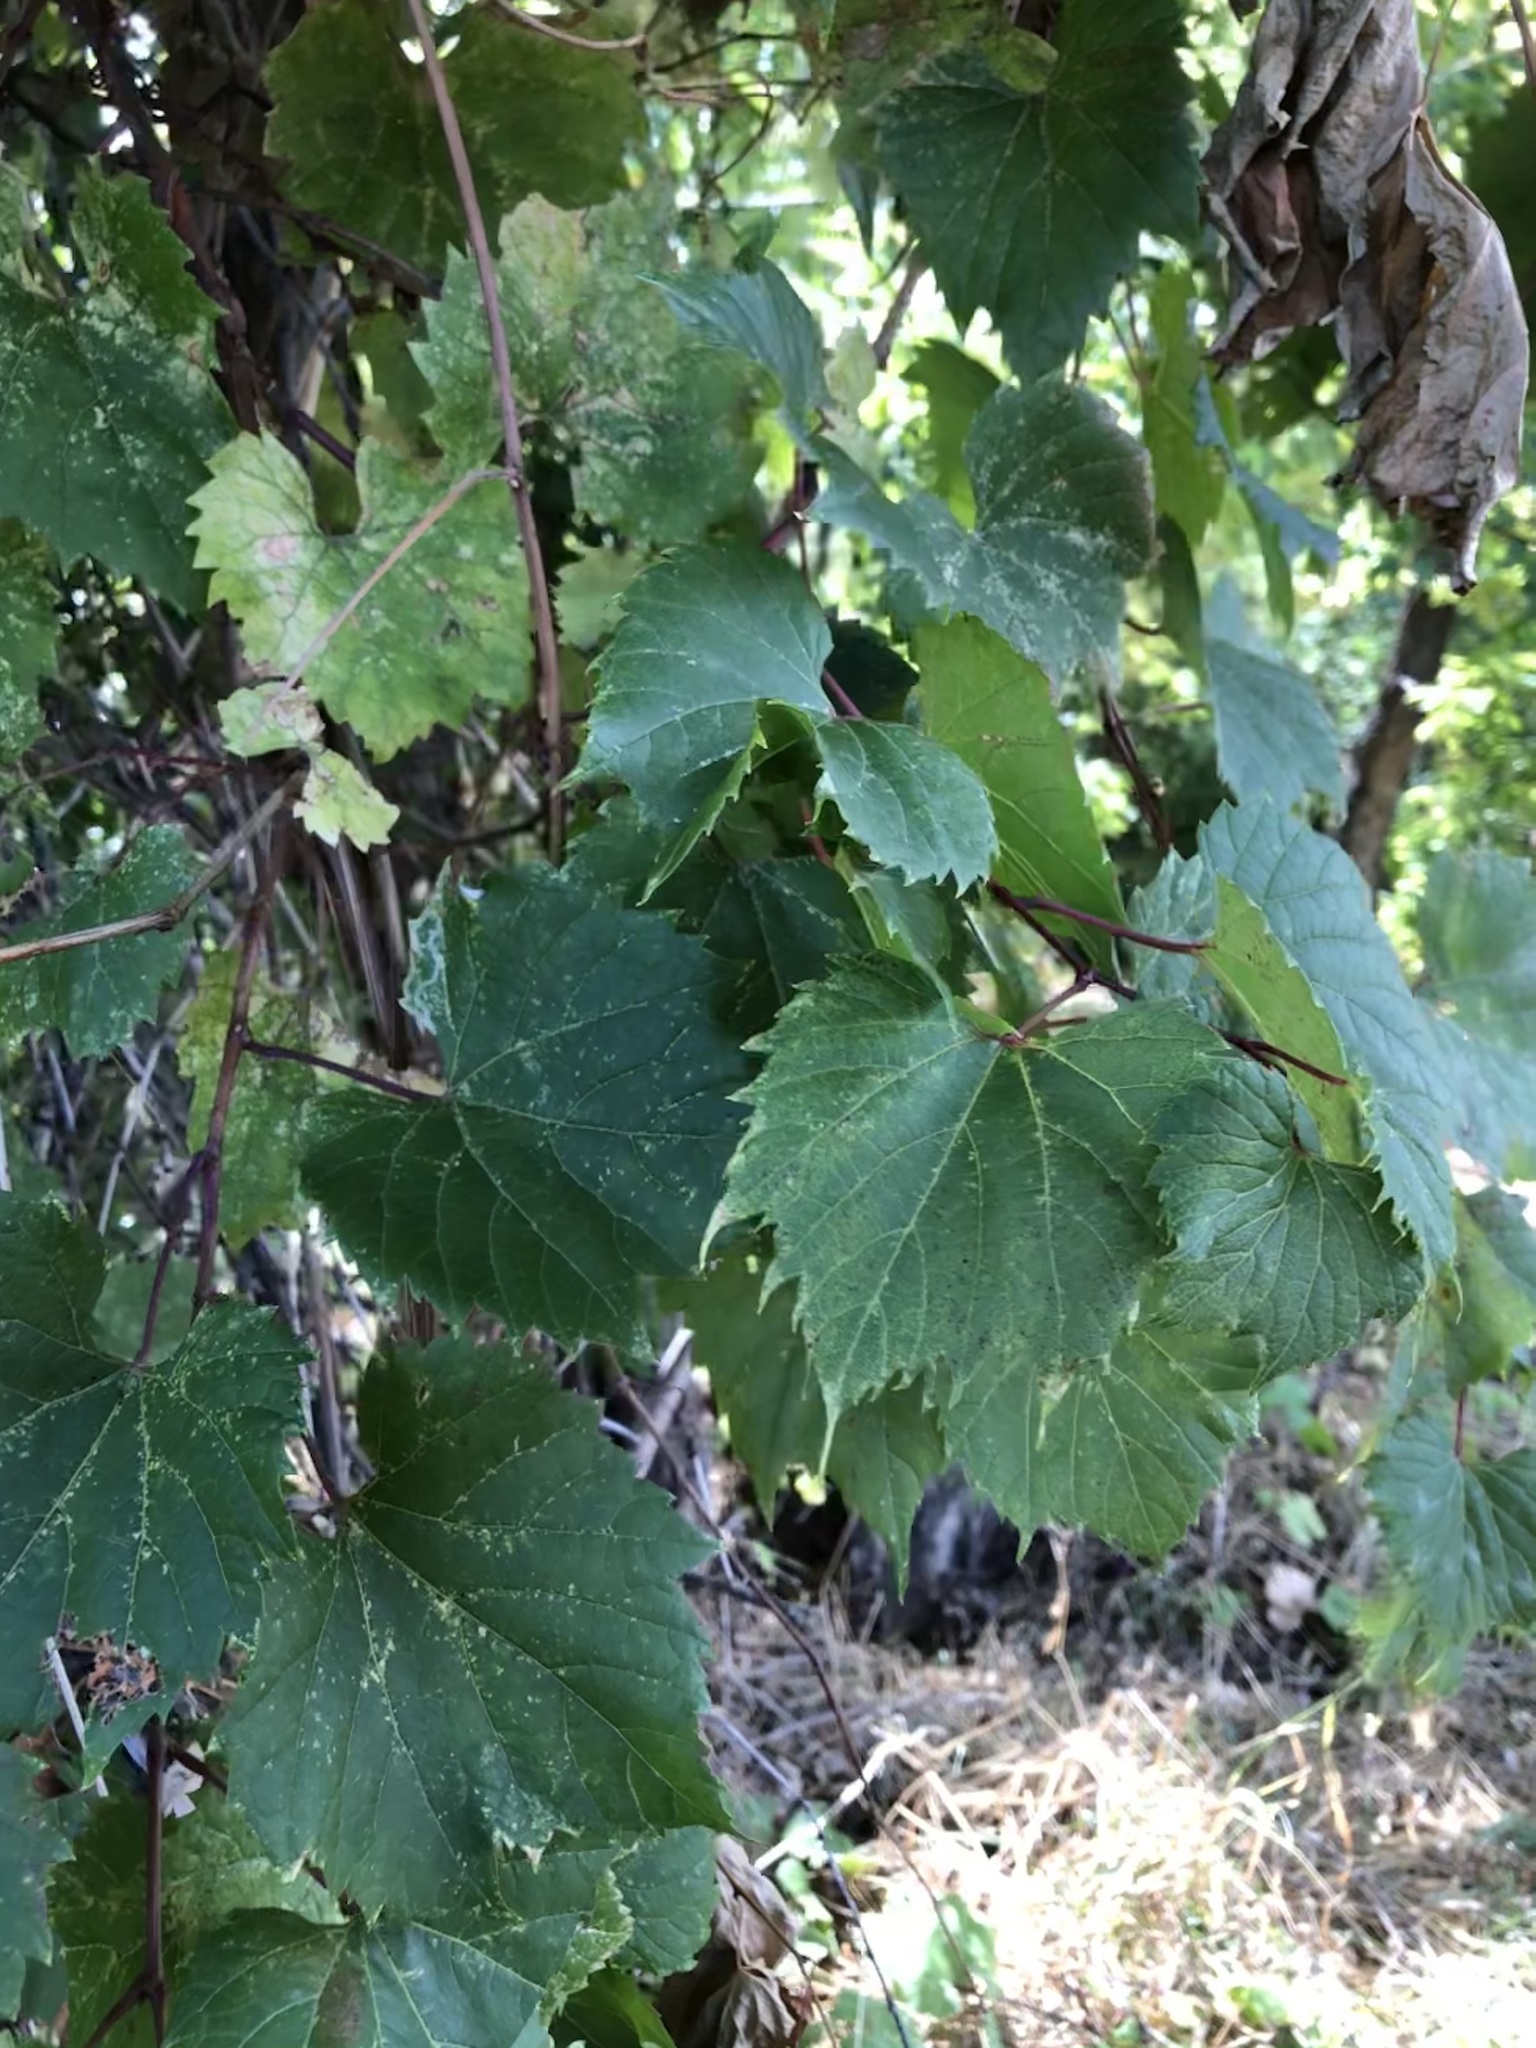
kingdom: Plantae
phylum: Tracheophyta
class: Magnoliopsida
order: Vitales
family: Vitaceae
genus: Vitis
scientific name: Vitis riparia
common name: Frost grape
